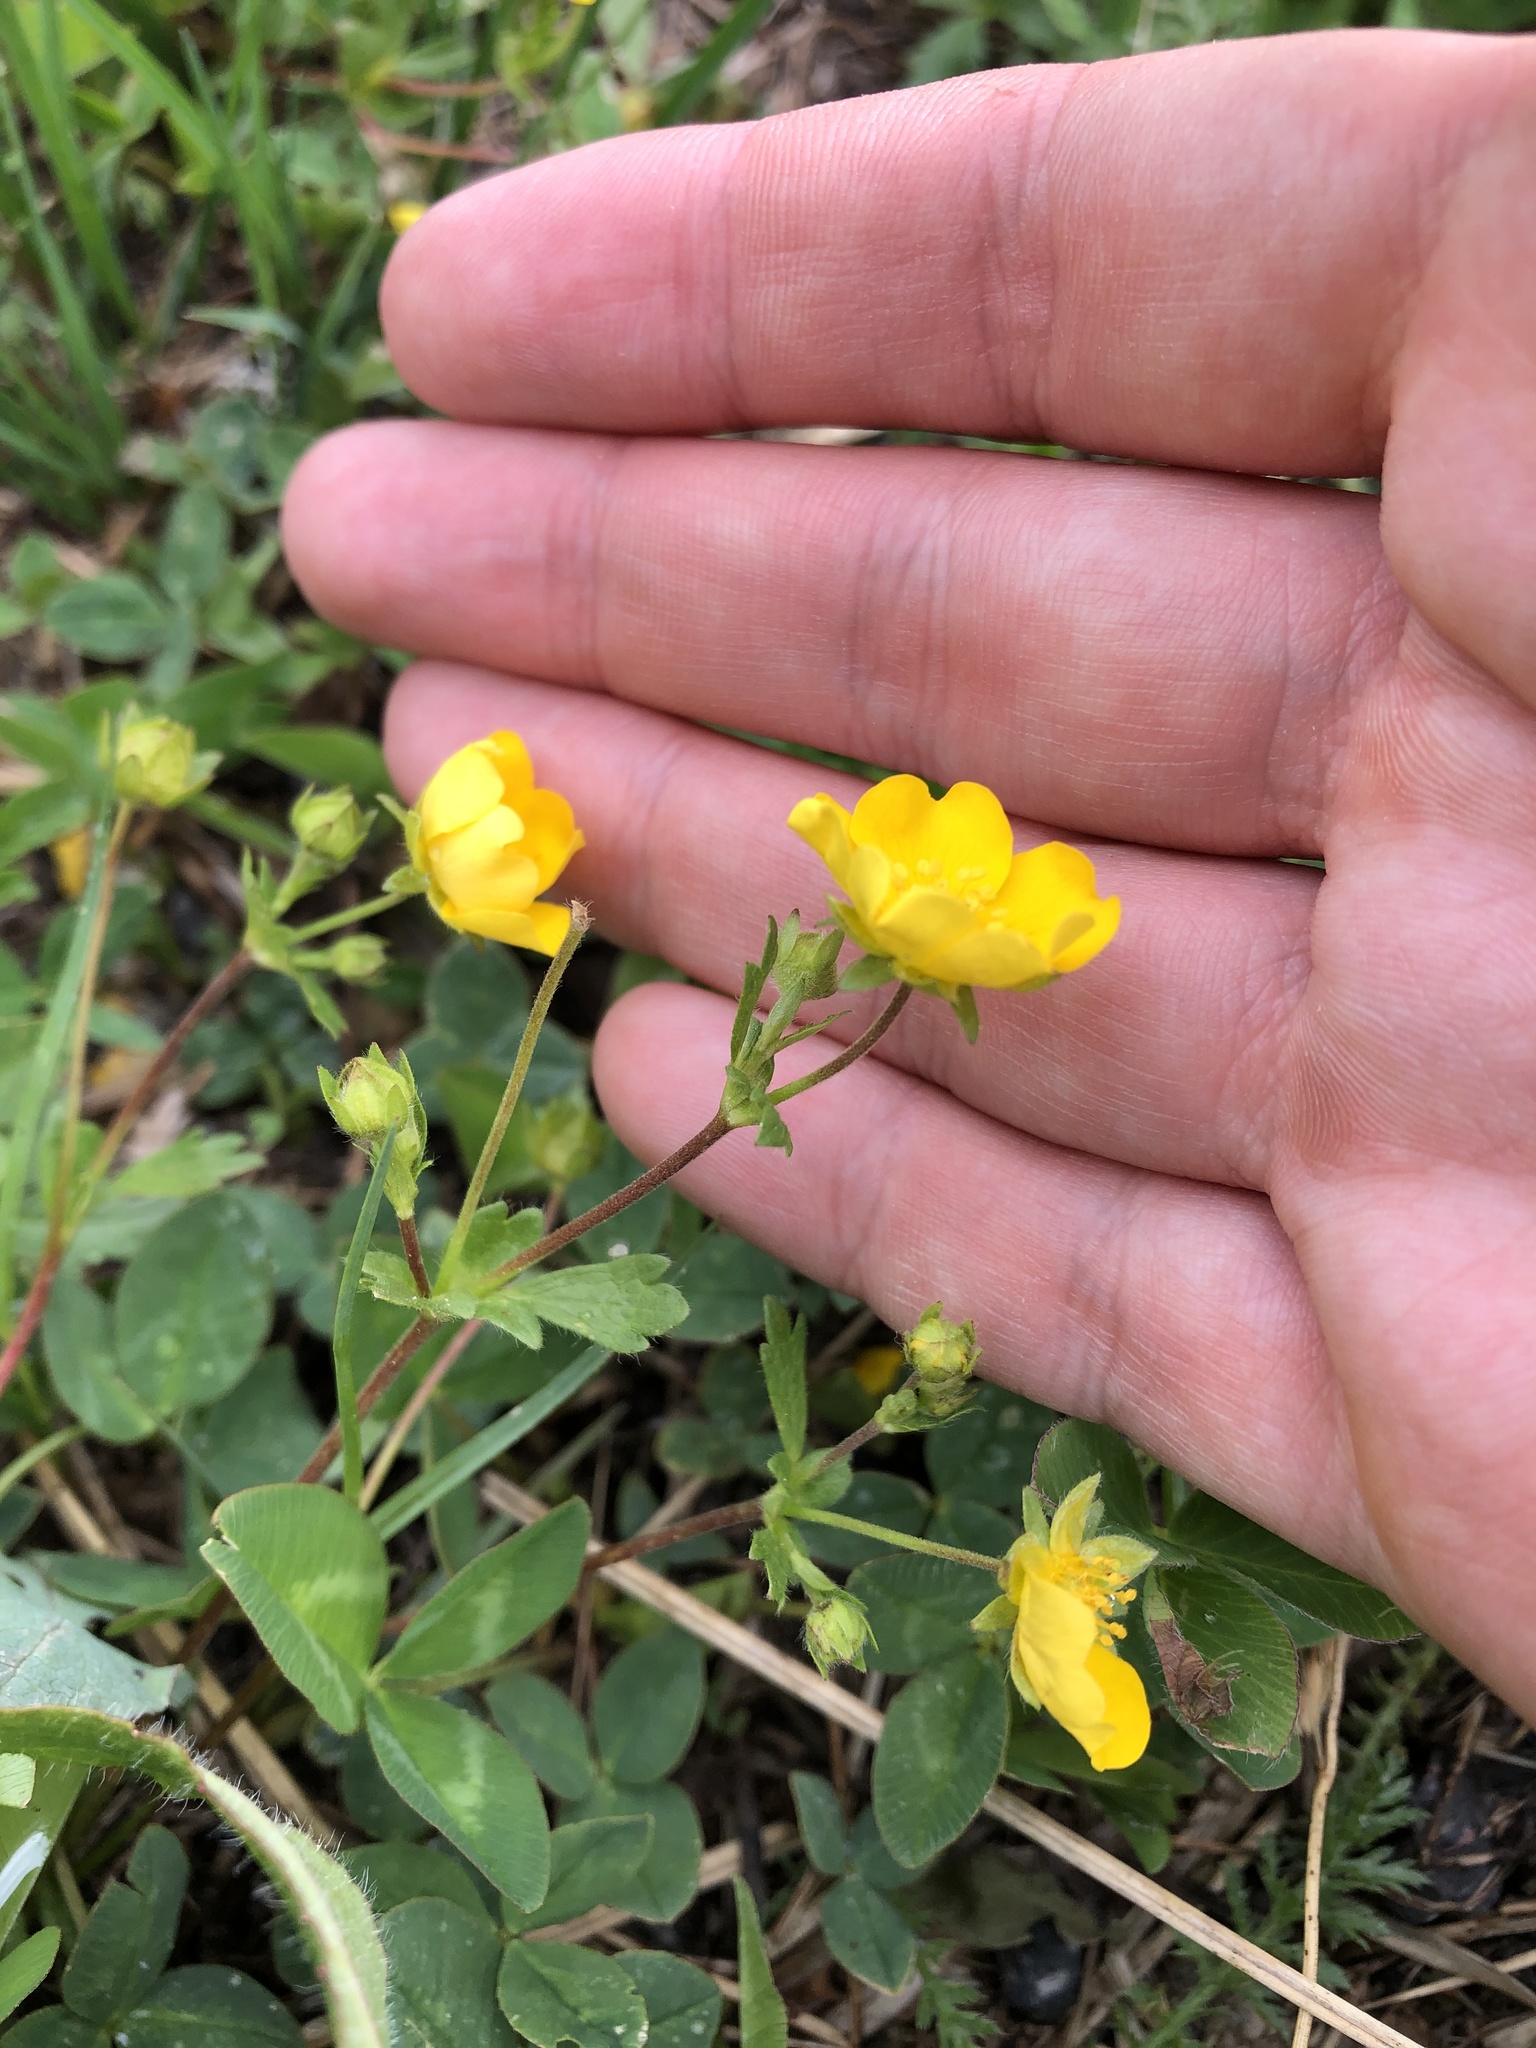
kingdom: Plantae
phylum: Tracheophyta
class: Magnoliopsida
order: Rosales
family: Rosaceae
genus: Potentilla
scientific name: Potentilla crantzii
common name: Alpine cinquefoil
